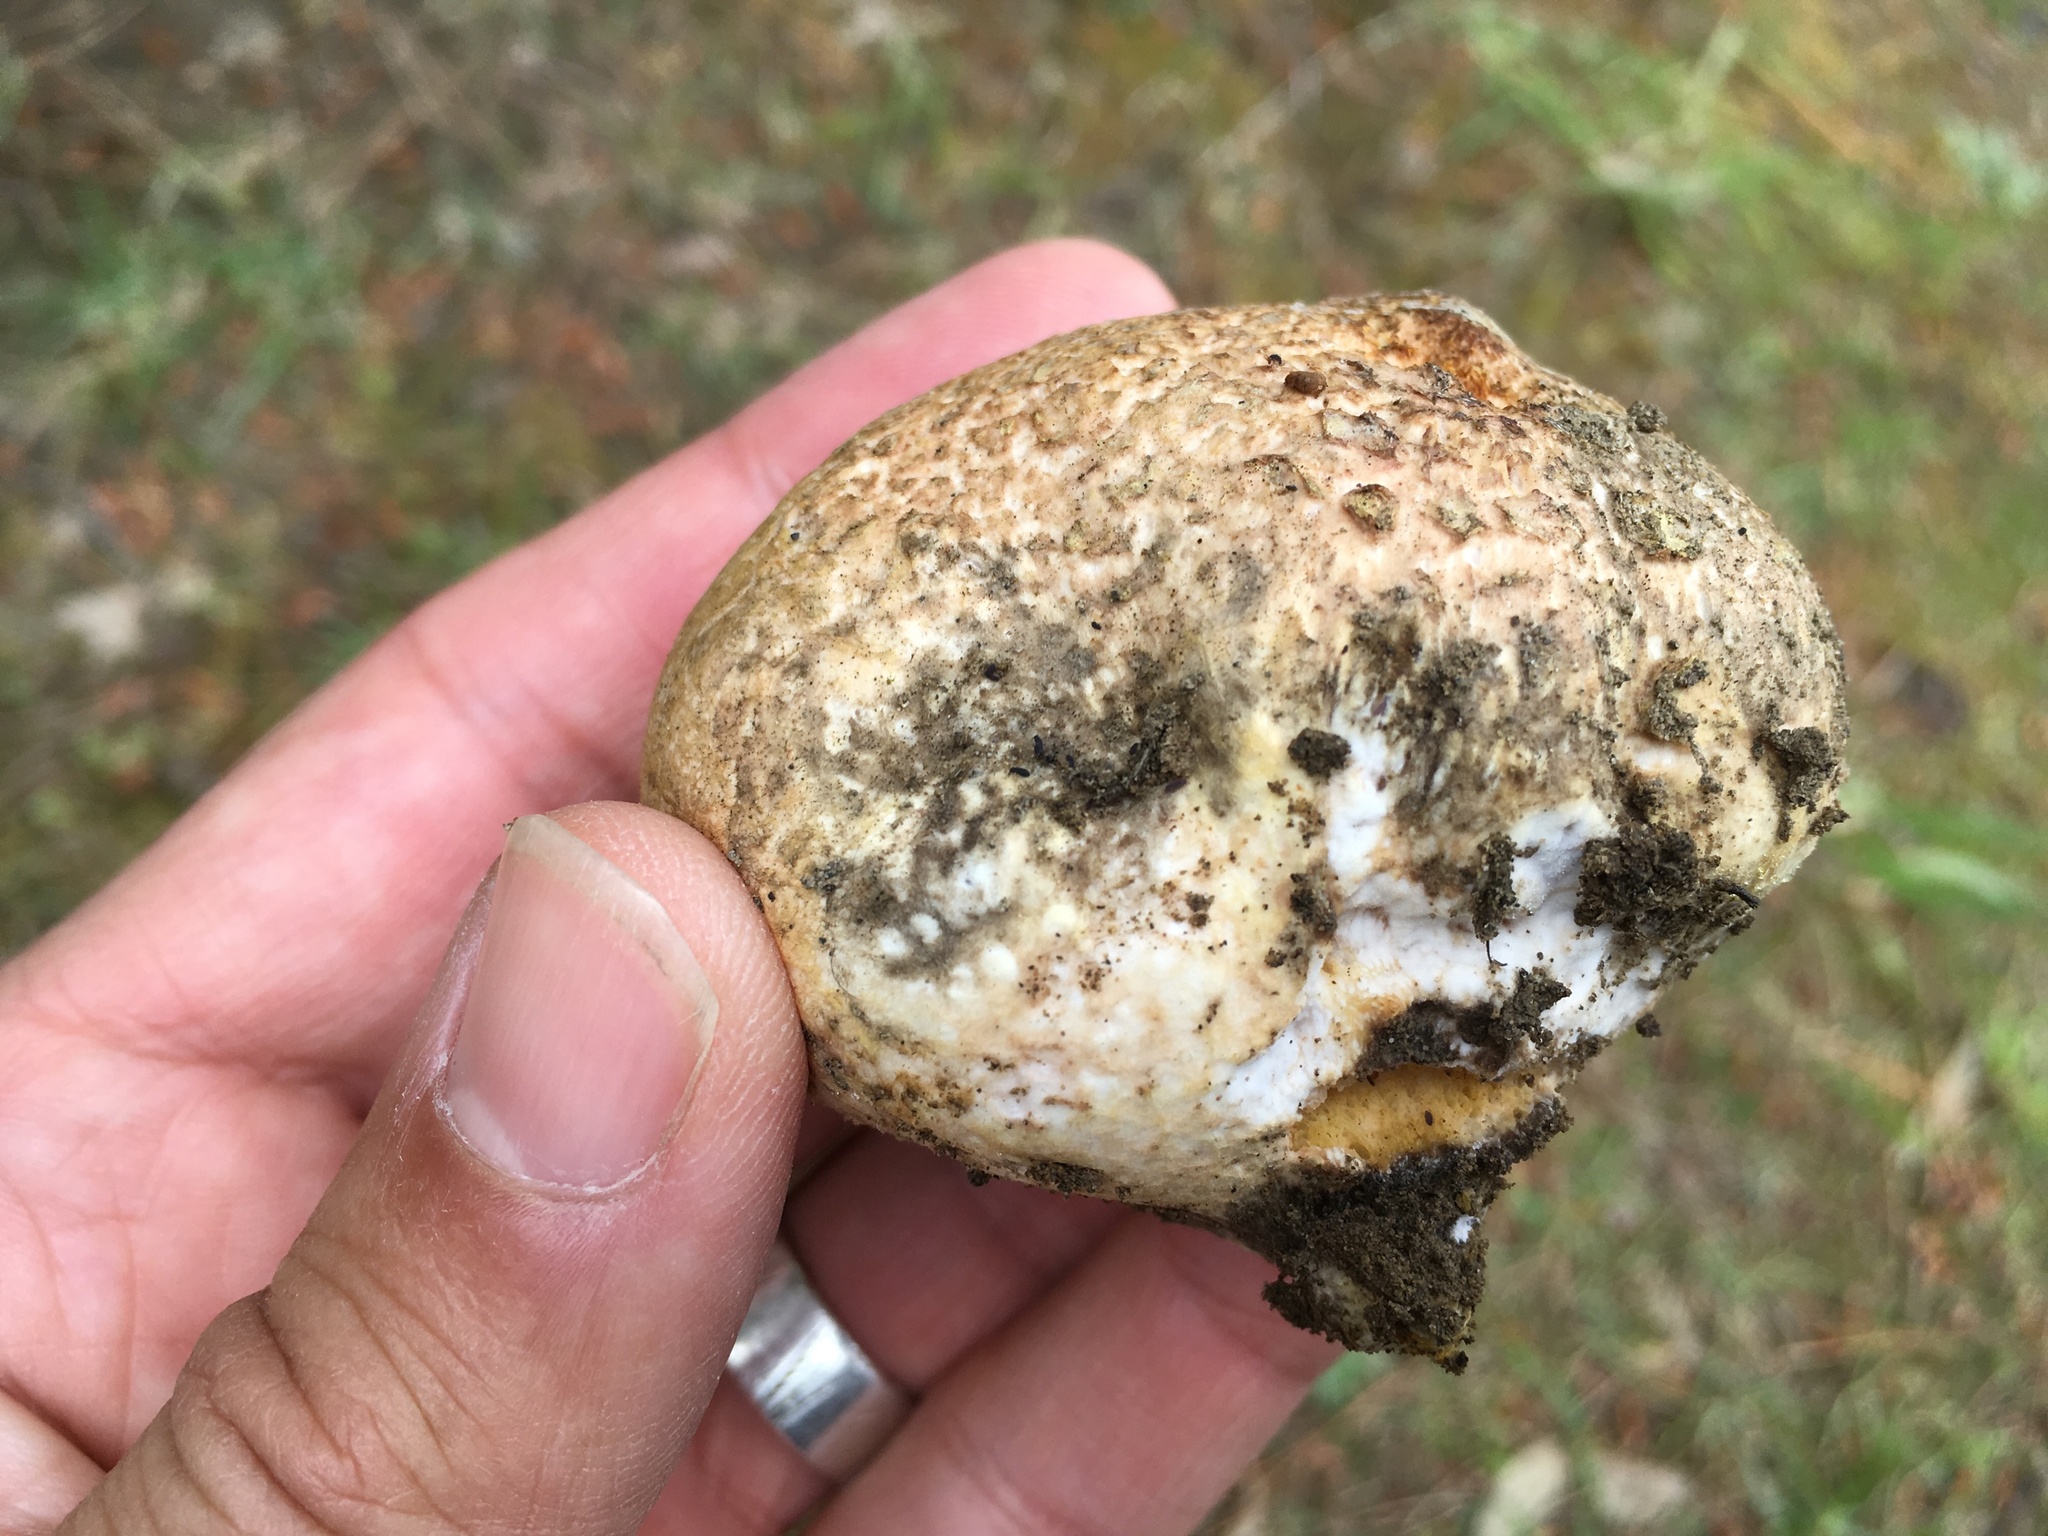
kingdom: Fungi
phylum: Basidiomycota
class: Agaricomycetes
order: Boletales
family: Rhizopogonaceae
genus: Rhizopogon
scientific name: Rhizopogon
